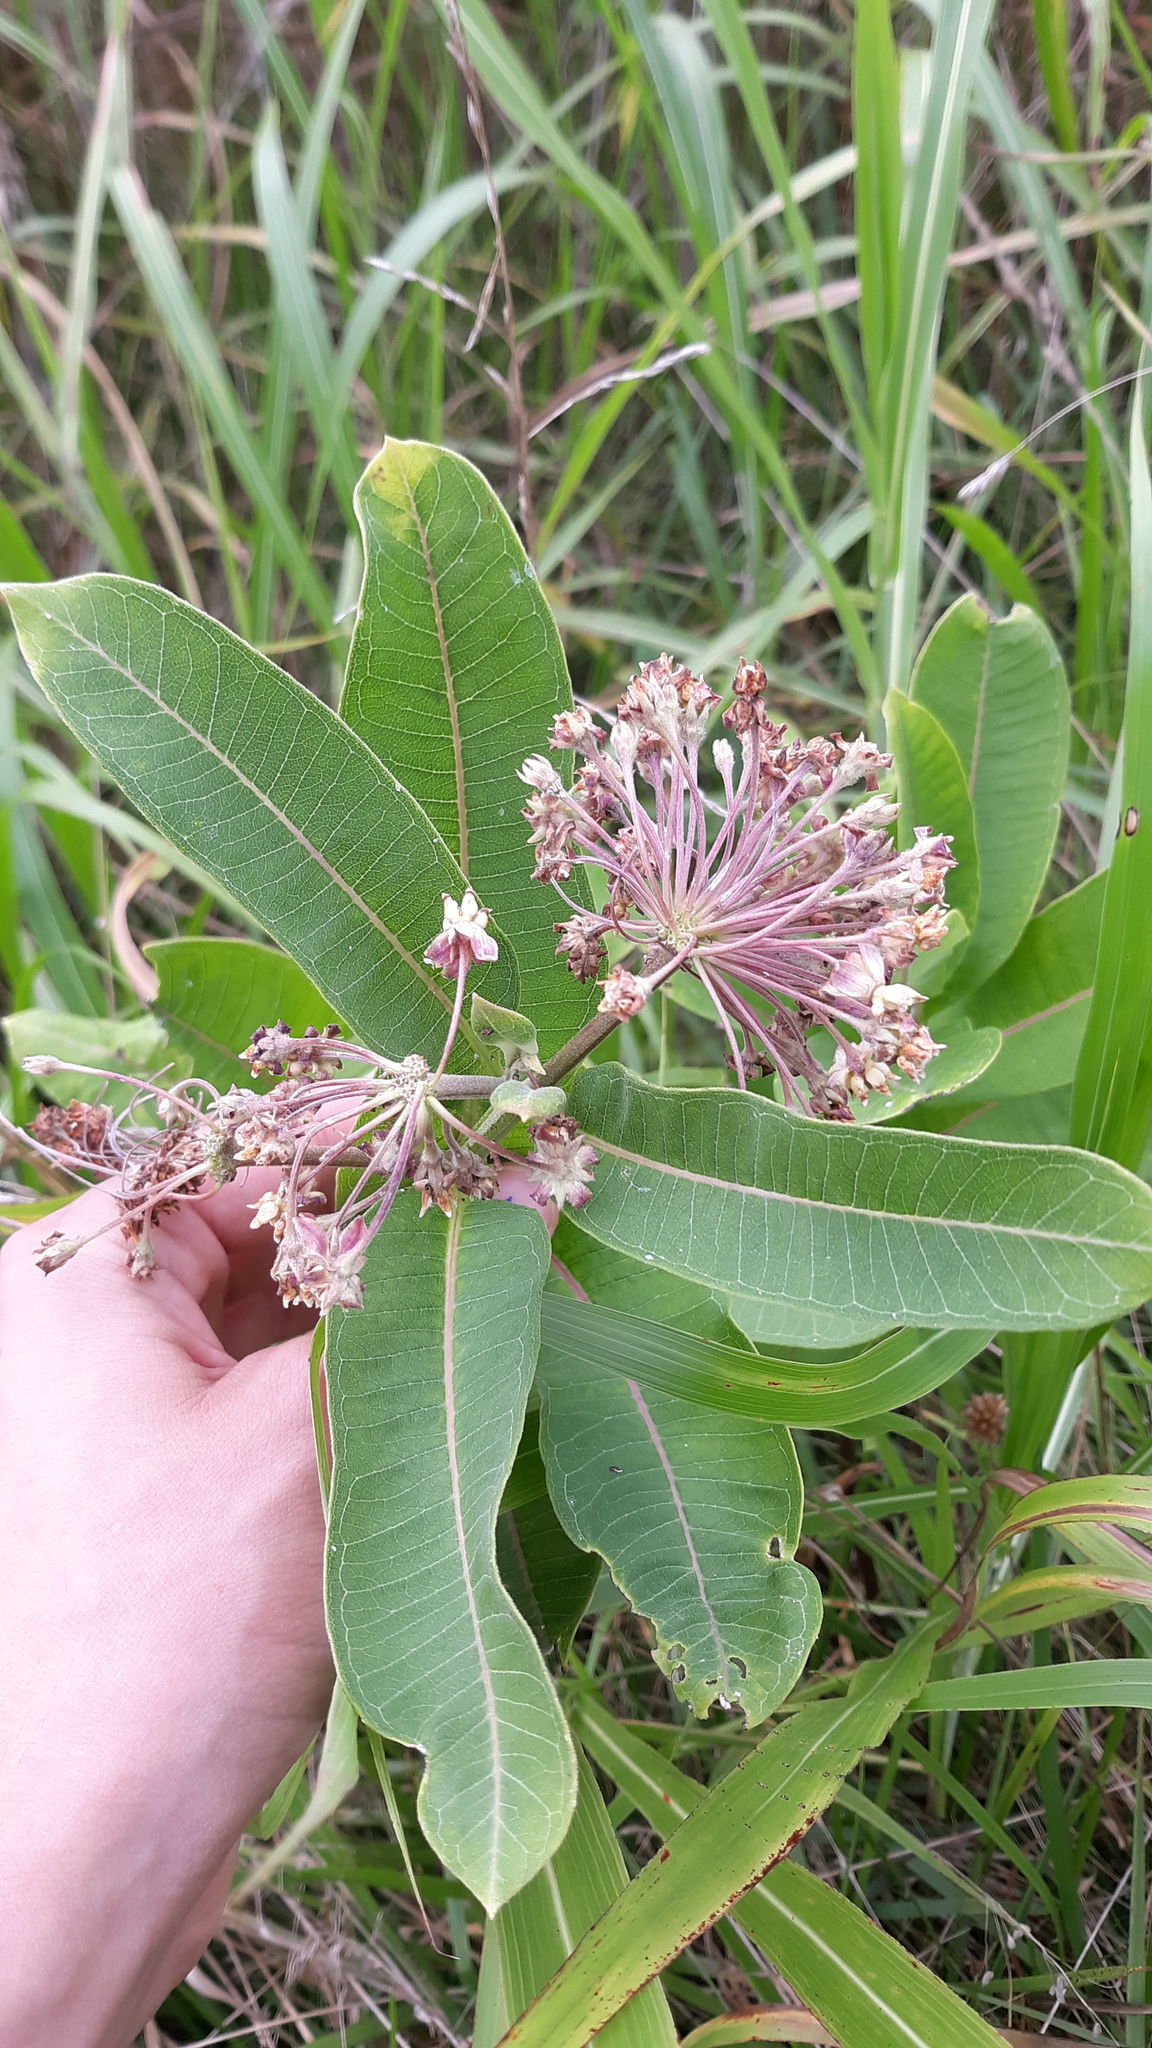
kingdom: Plantae
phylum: Tracheophyta
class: Magnoliopsida
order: Gentianales
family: Apocynaceae
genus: Asclepias
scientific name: Asclepias syriaca
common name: Common milkweed
